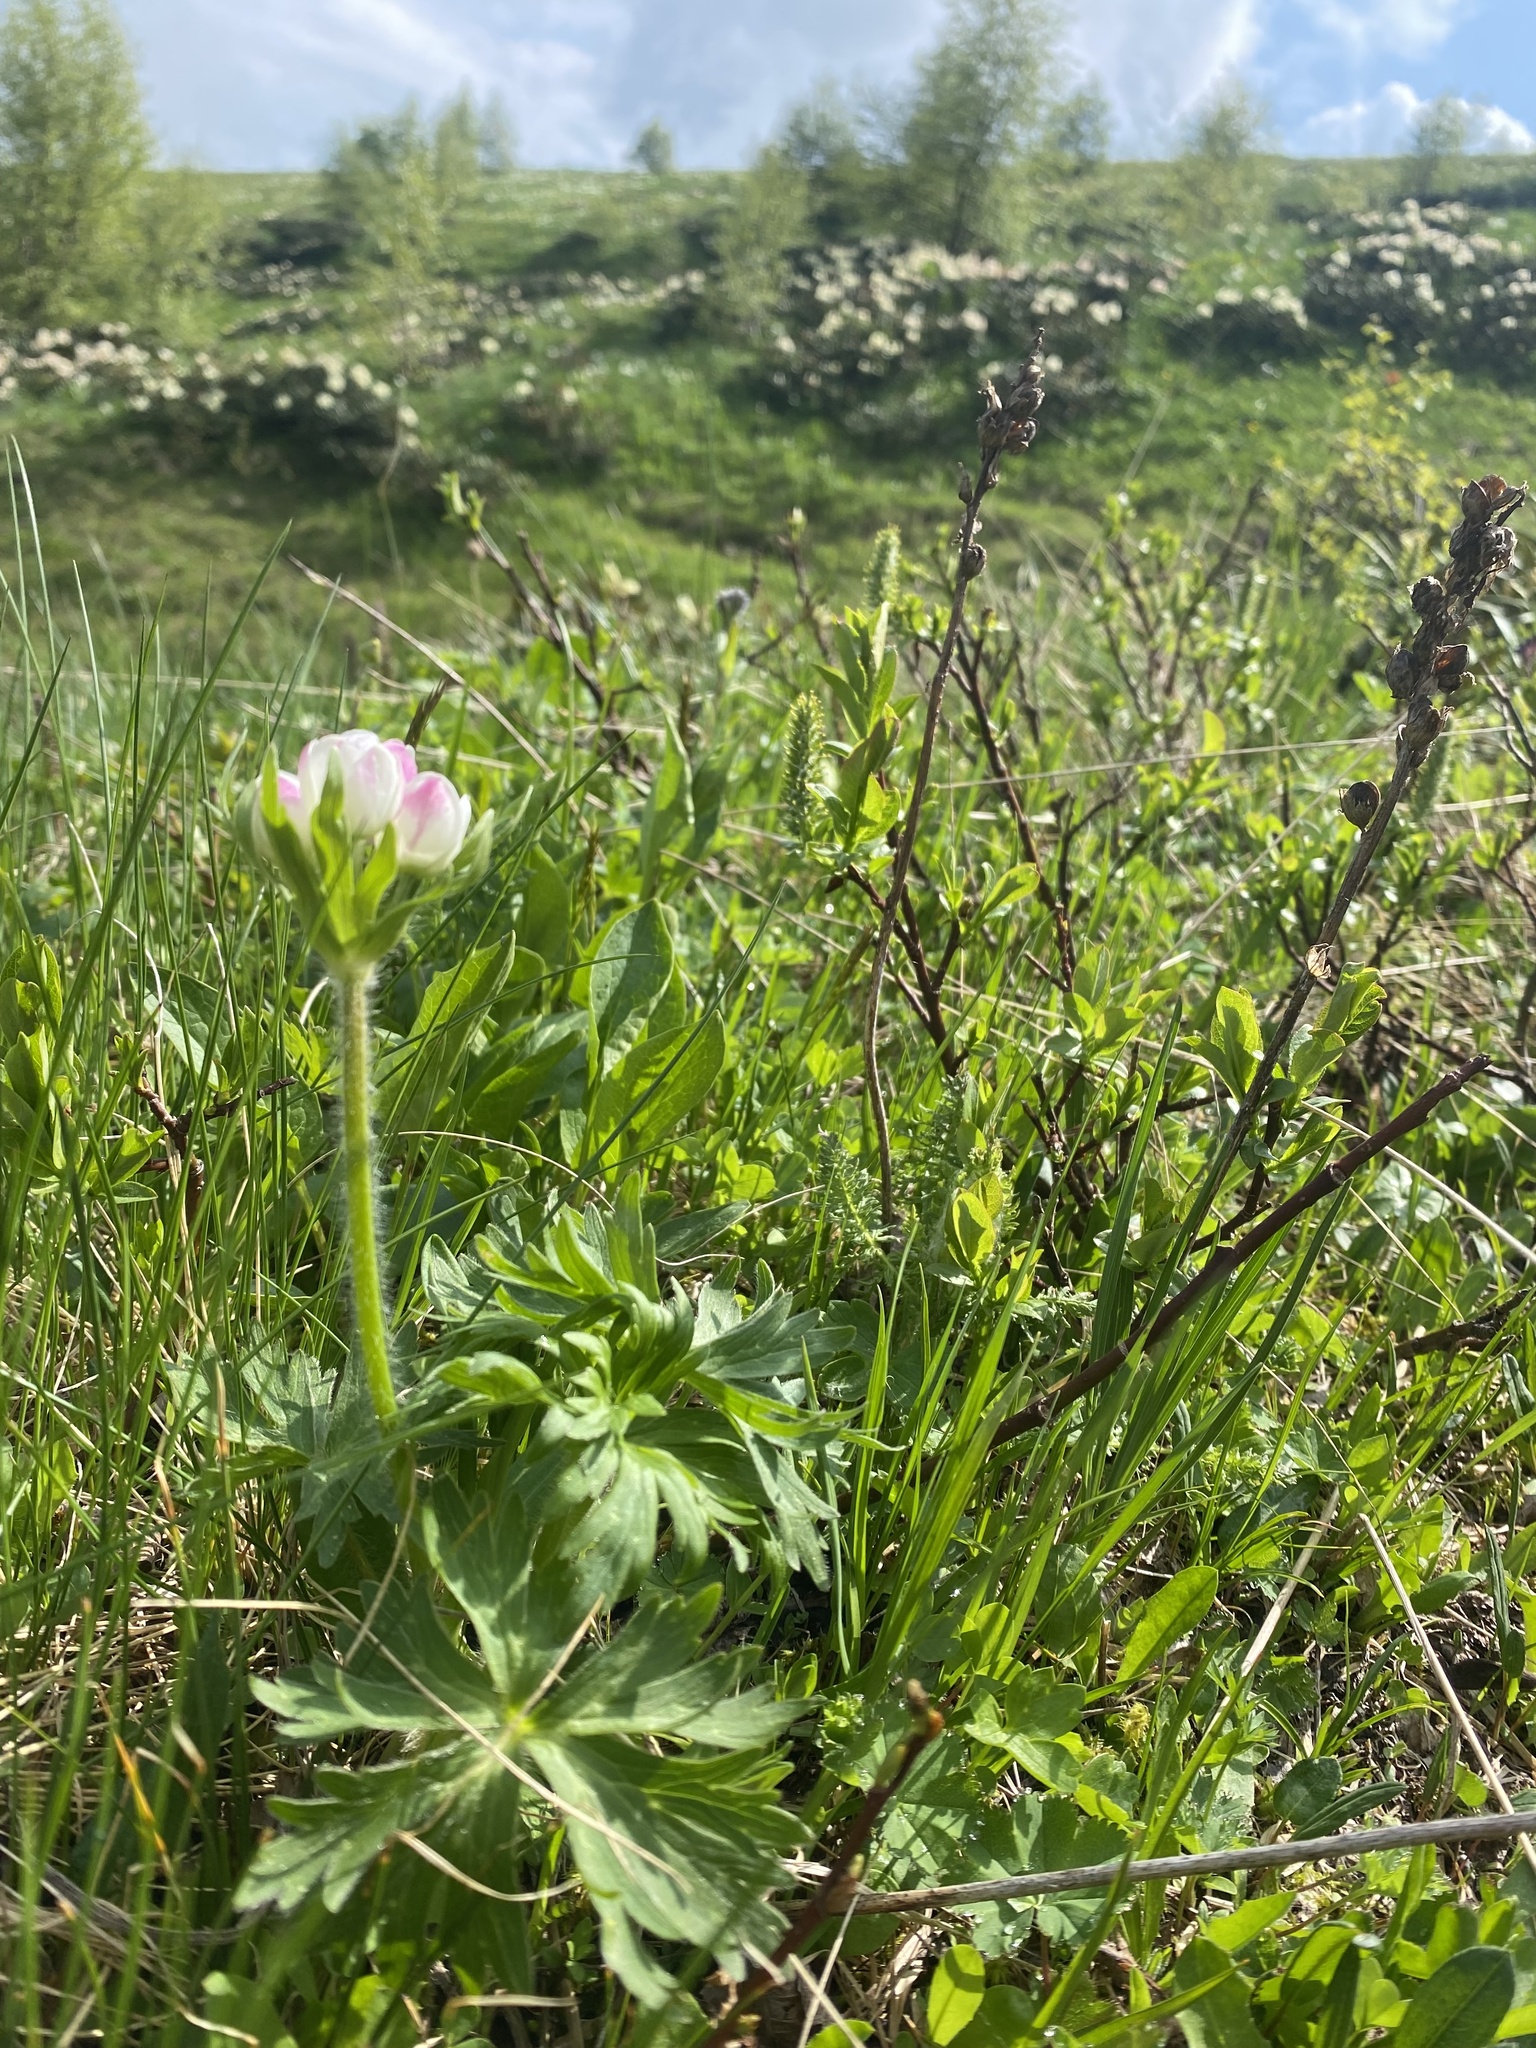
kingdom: Plantae
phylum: Tracheophyta
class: Magnoliopsida
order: Ranunculales
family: Ranunculaceae
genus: Anemonastrum
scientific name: Anemonastrum narcissiflorum
